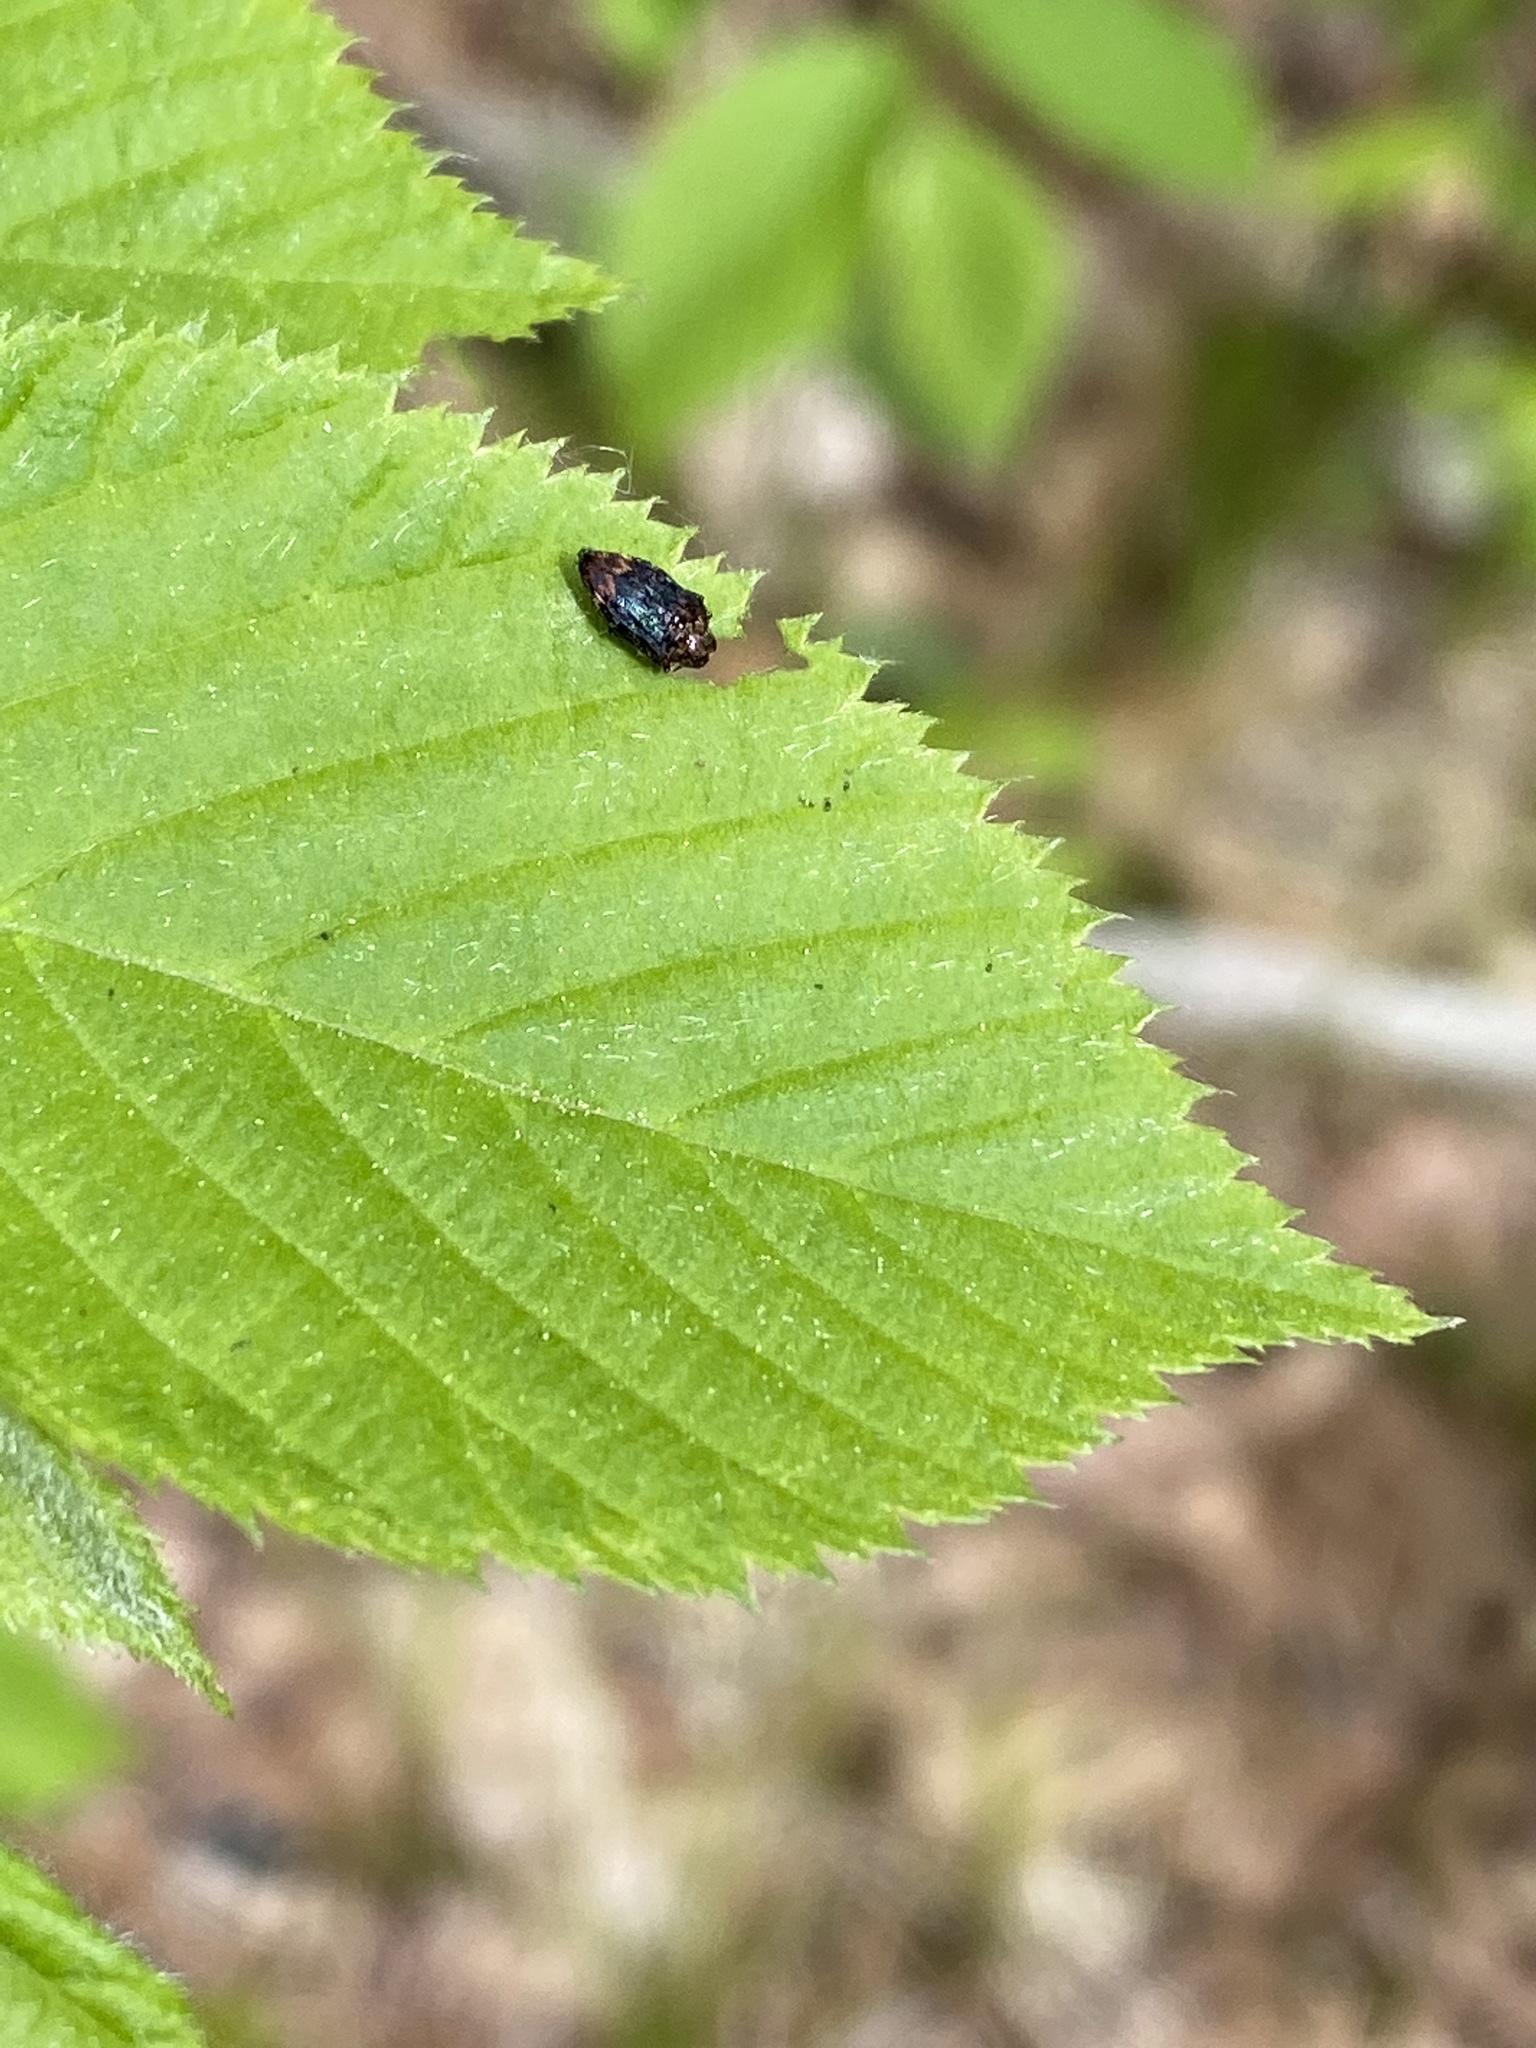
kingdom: Animalia
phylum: Arthropoda
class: Insecta
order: Coleoptera
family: Buprestidae
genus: Brachys
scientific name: Brachys aerosus
